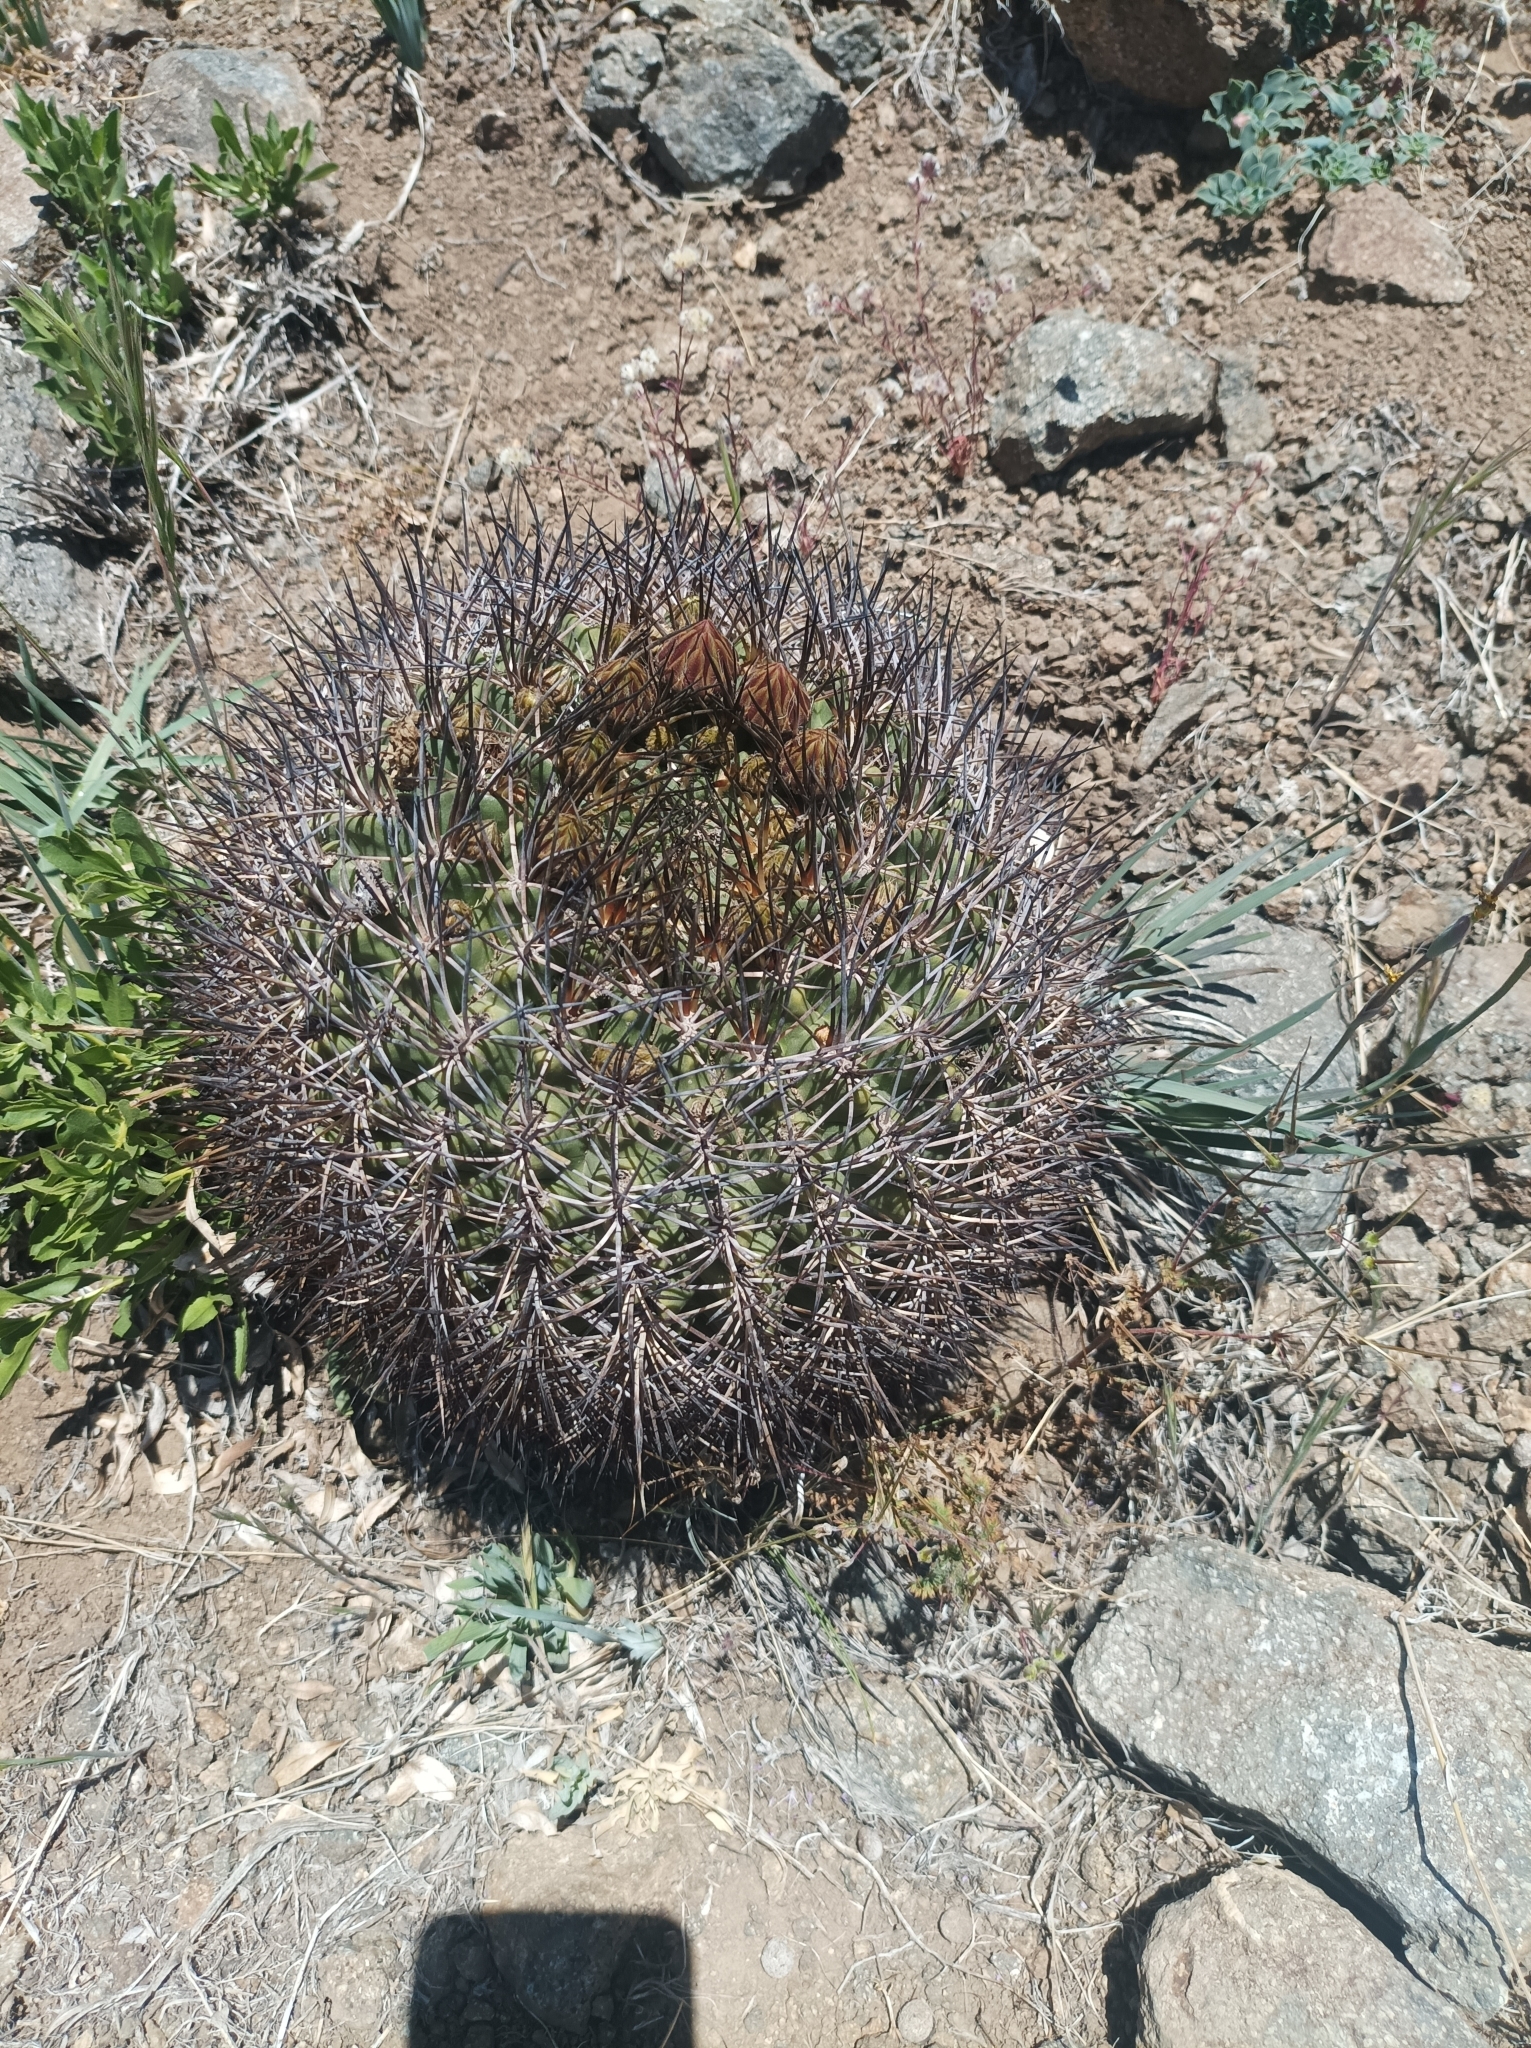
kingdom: Plantae
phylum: Tracheophyta
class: Magnoliopsida
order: Caryophyllales
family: Cactaceae
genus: Eriosyce
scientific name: Eriosyce curvispina
